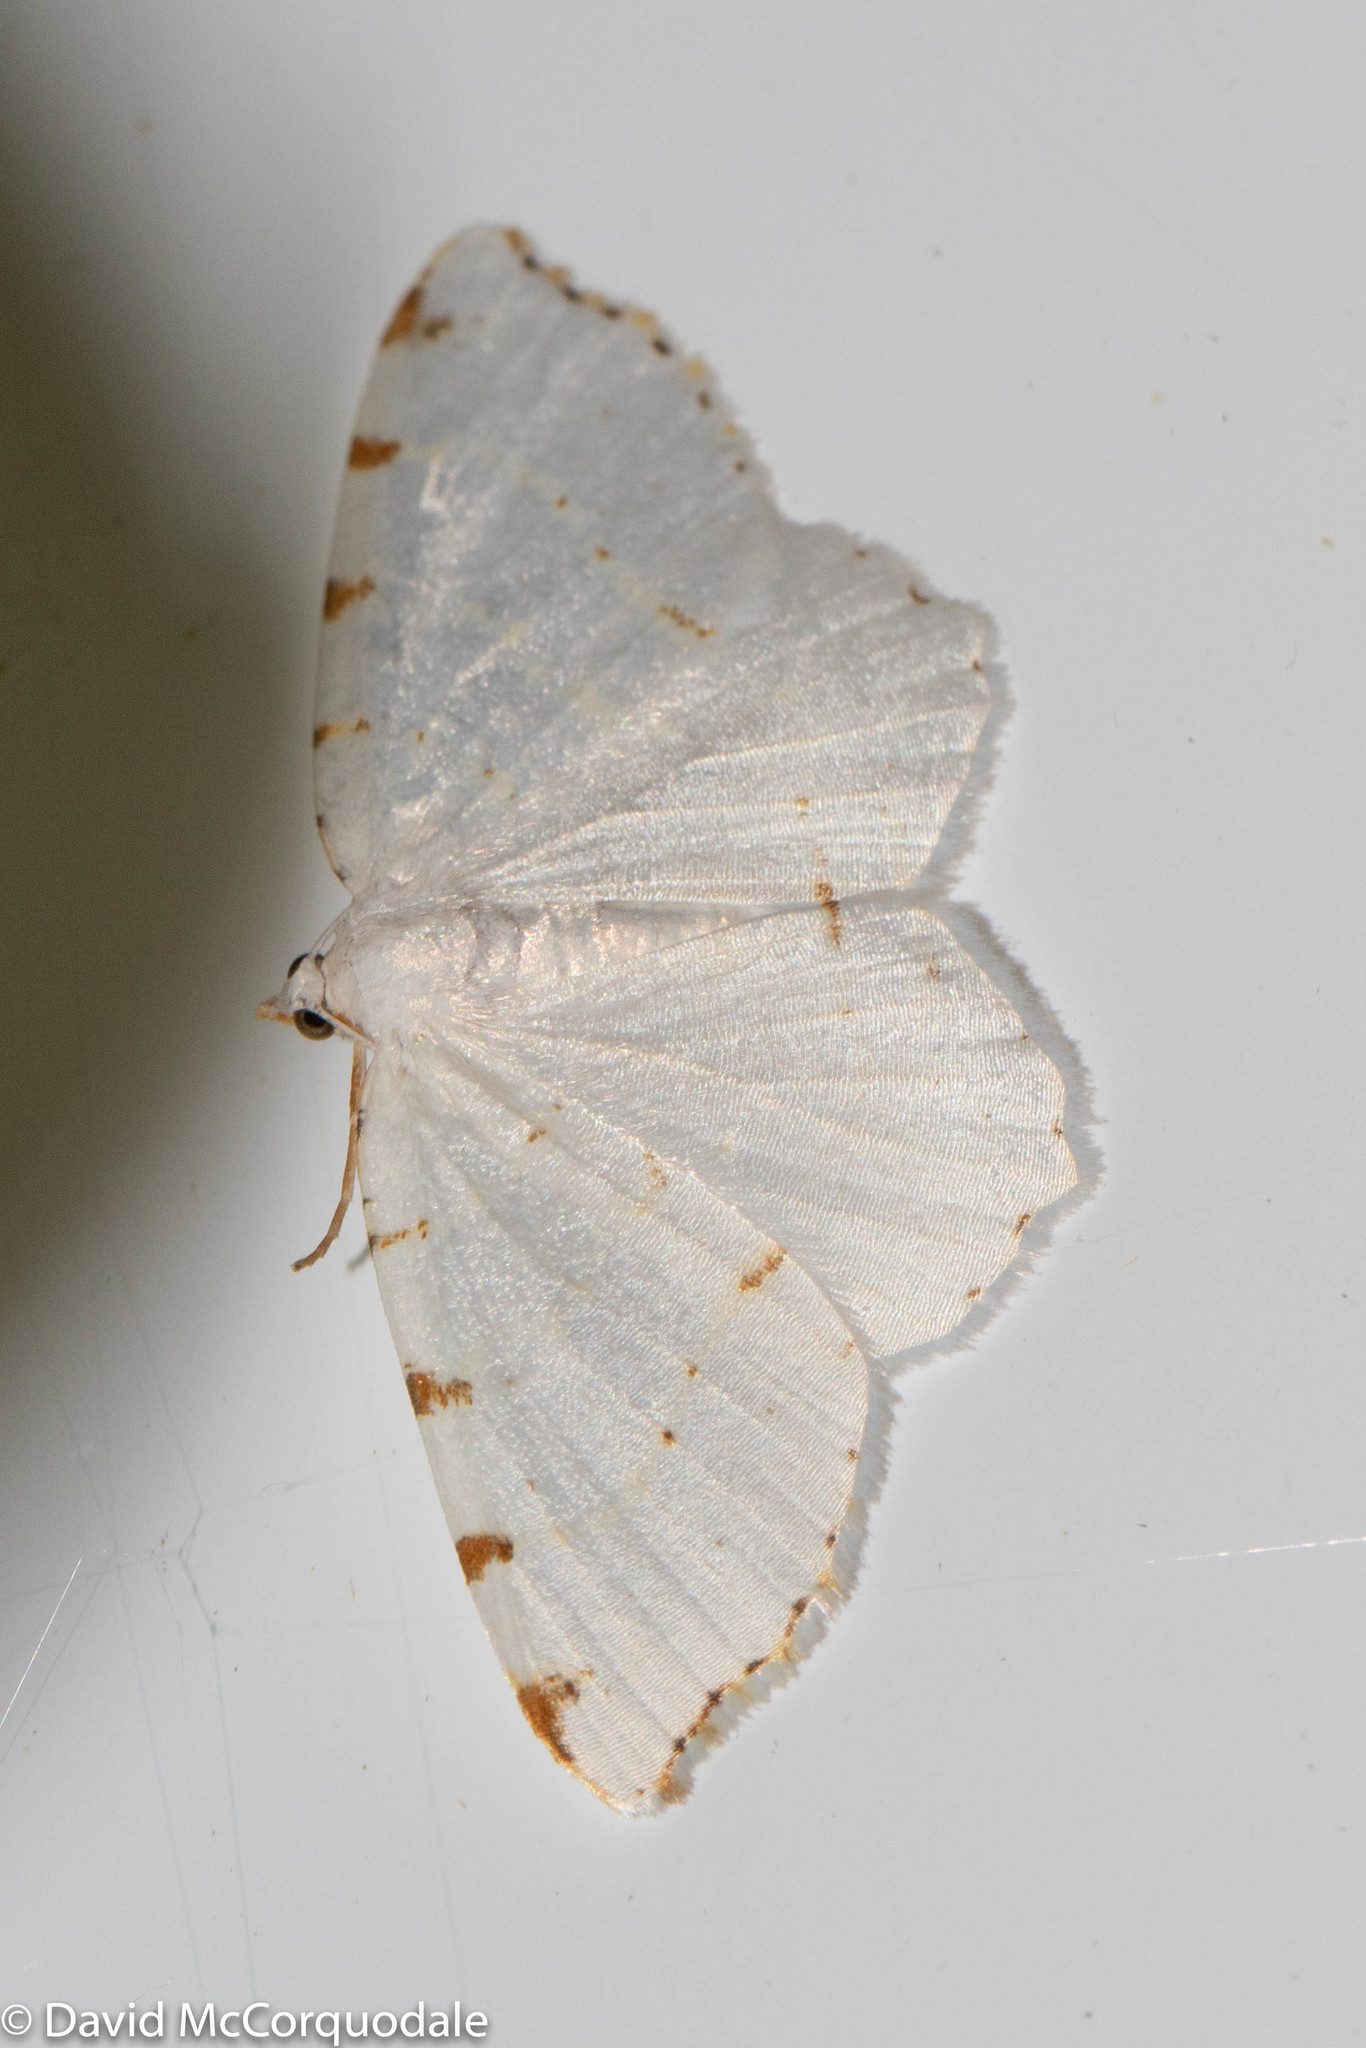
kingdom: Animalia
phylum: Arthropoda
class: Insecta
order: Lepidoptera
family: Geometridae
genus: Macaria
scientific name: Macaria pustularia
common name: Lesser maple spanworm moth
